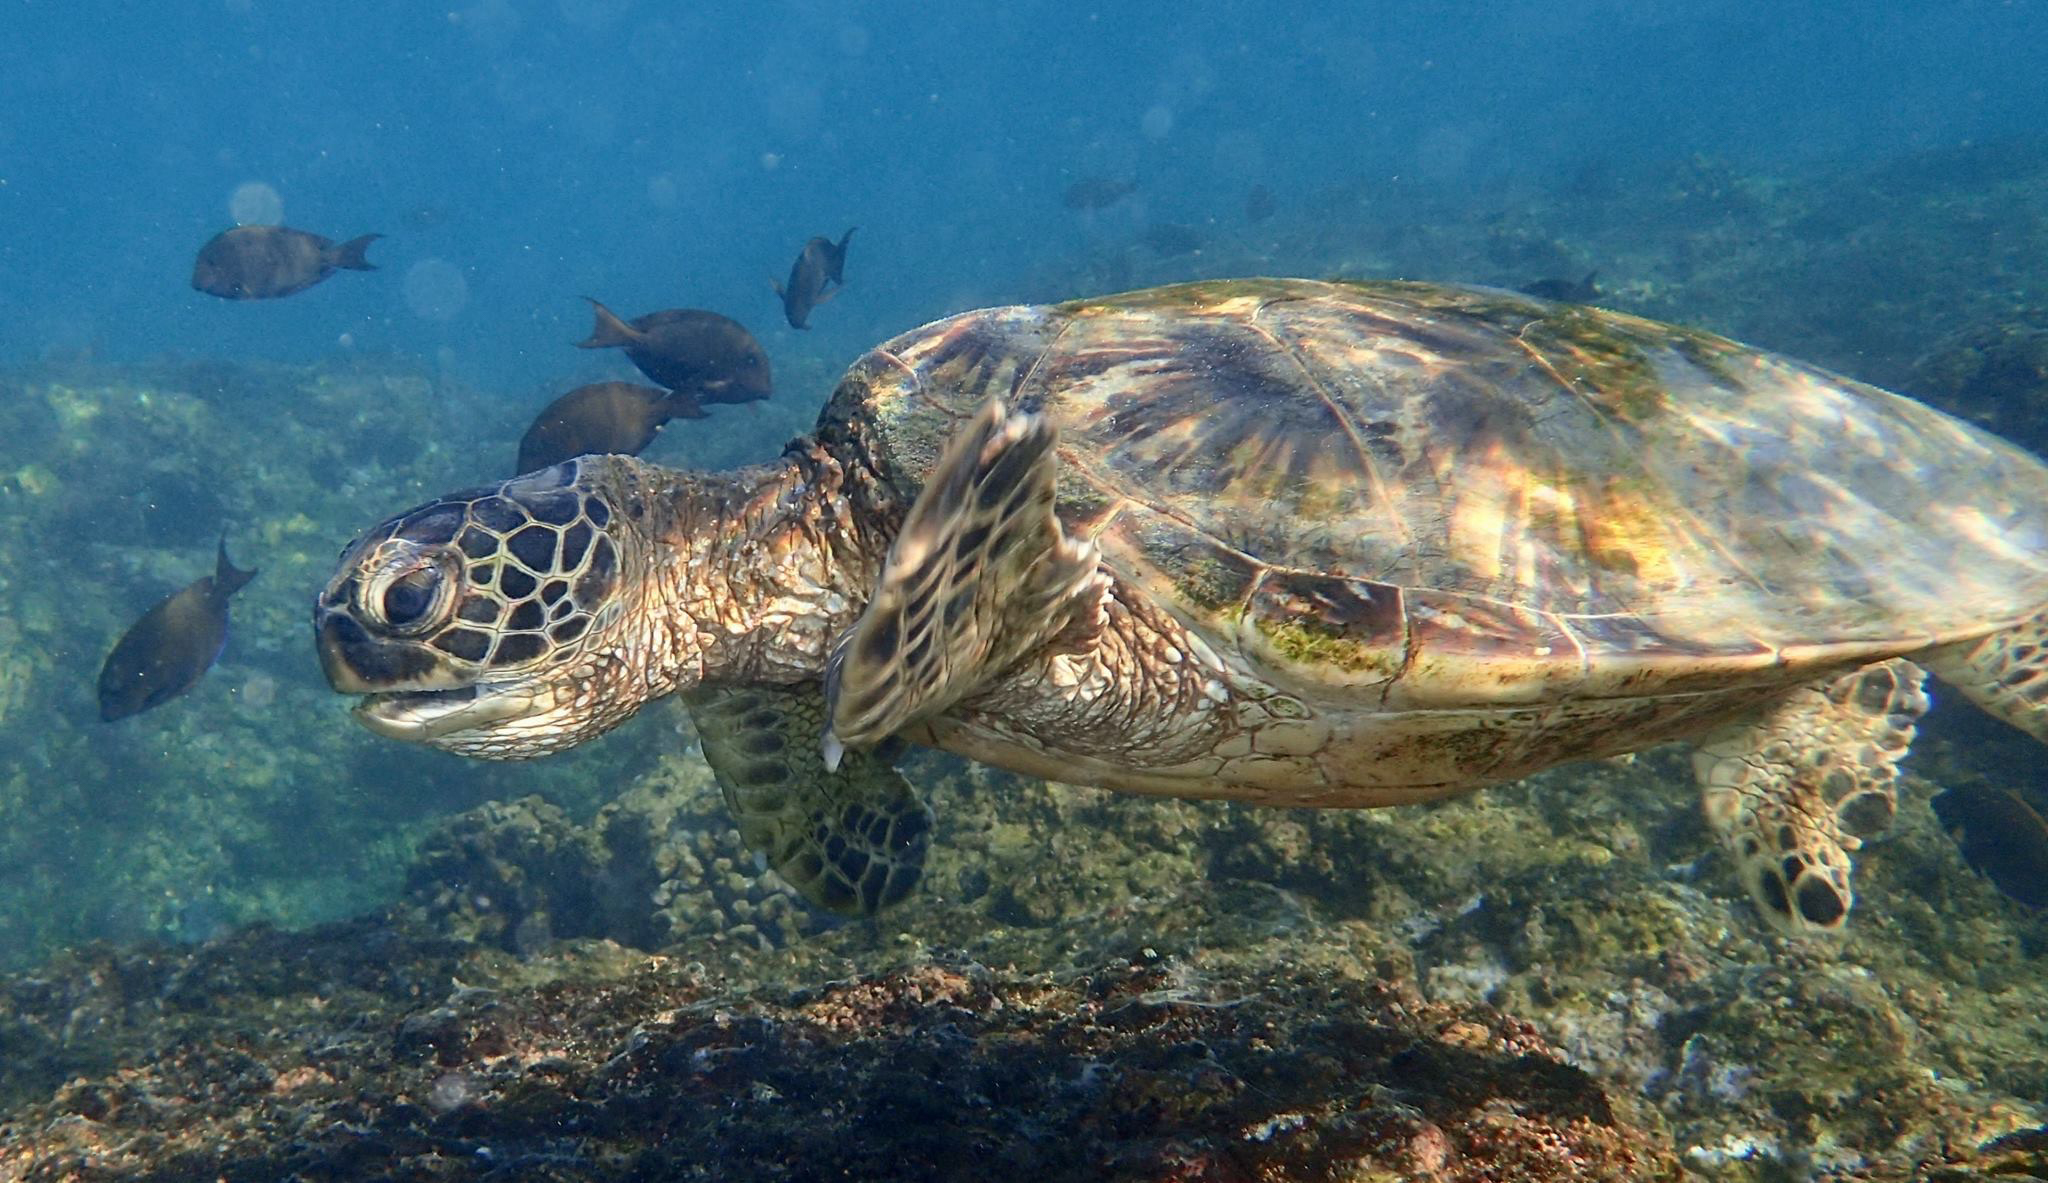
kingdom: Animalia
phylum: Chordata
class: Testudines
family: Cheloniidae
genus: Chelonia
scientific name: Chelonia mydas
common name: Green turtle
